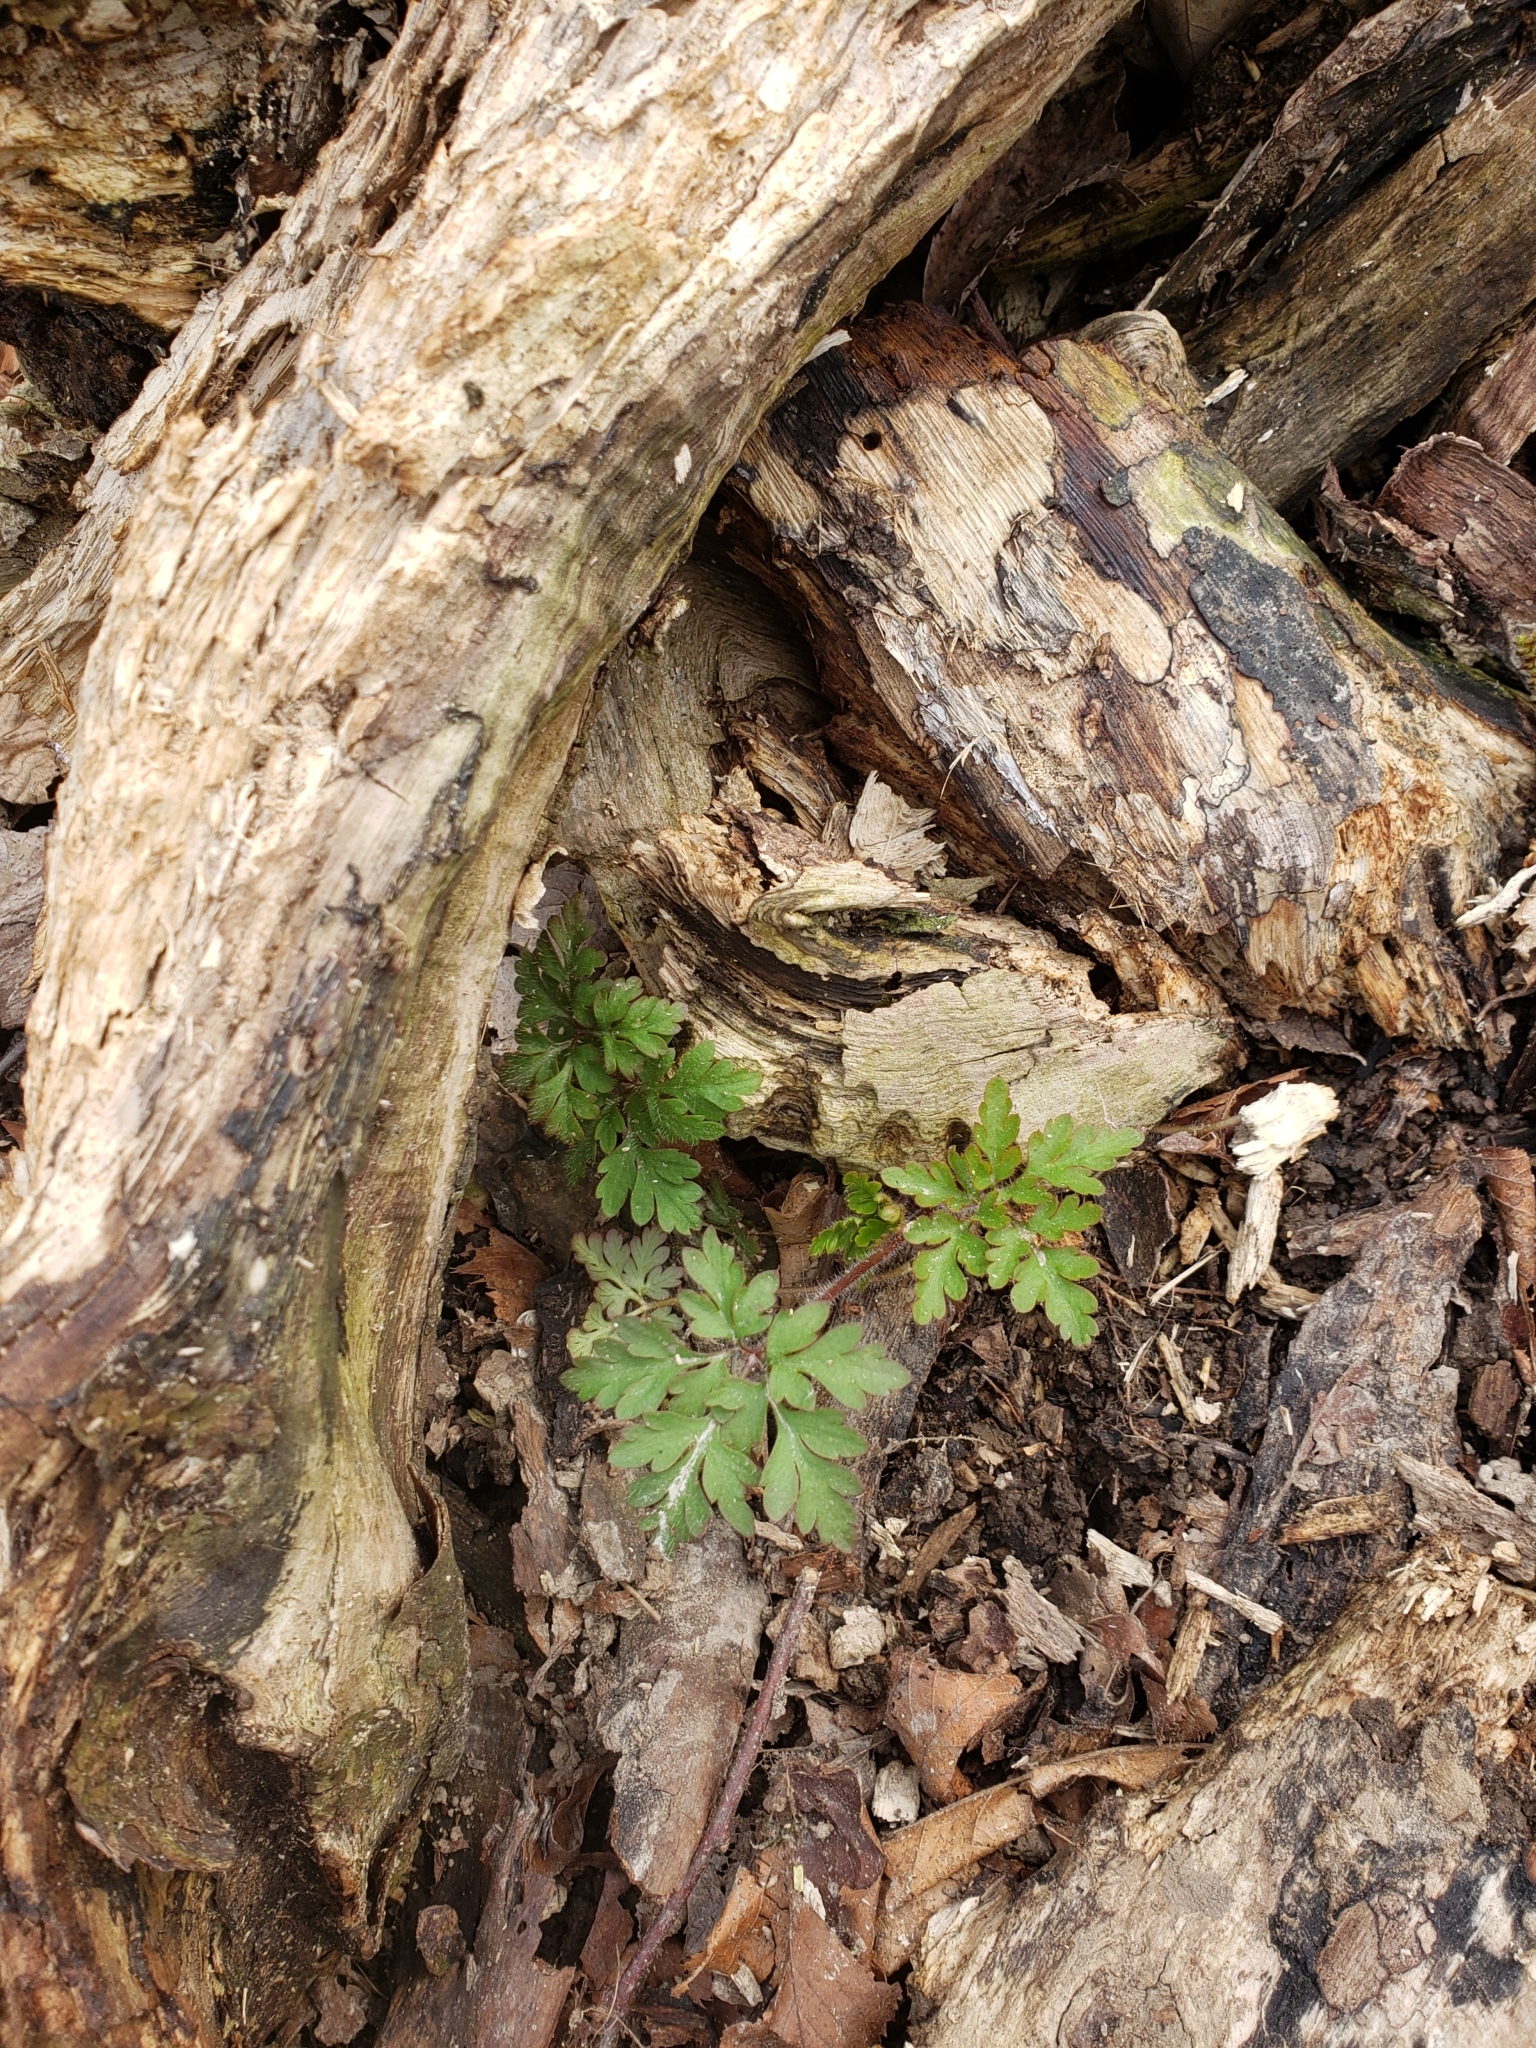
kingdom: Plantae
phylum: Tracheophyta
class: Magnoliopsida
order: Geraniales
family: Geraniaceae
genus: Geranium
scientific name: Geranium robertianum
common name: Herb-robert
